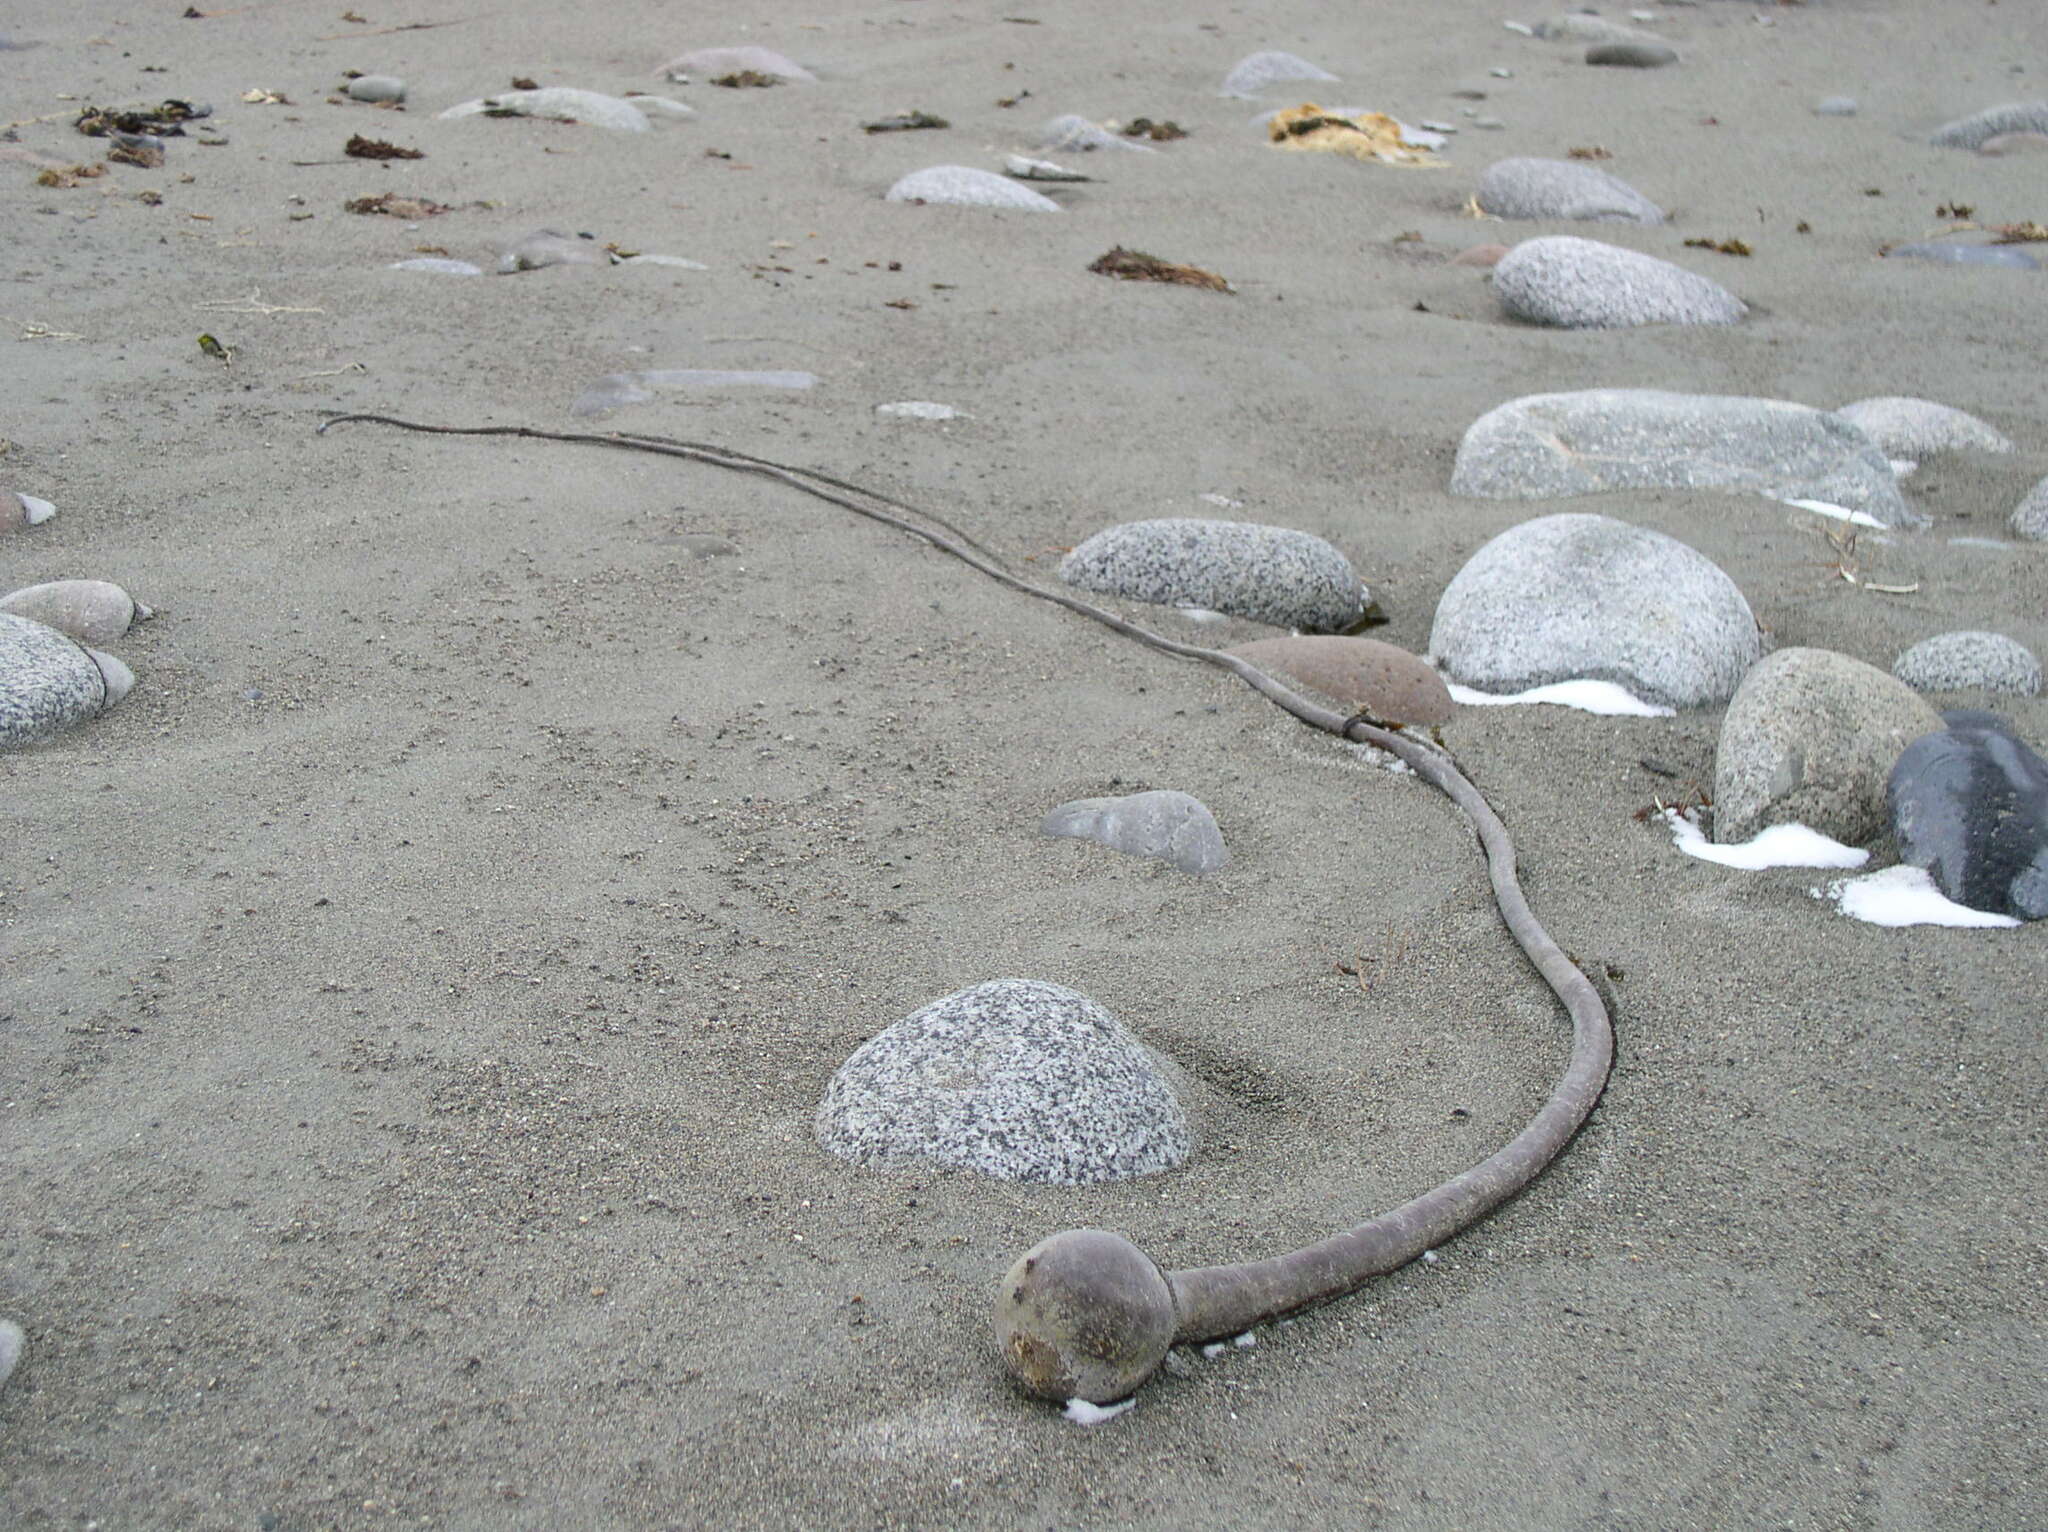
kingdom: Chromista
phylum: Ochrophyta
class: Phaeophyceae
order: Laminariales
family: Laminariaceae
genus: Nereocystis
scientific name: Nereocystis luetkeana
